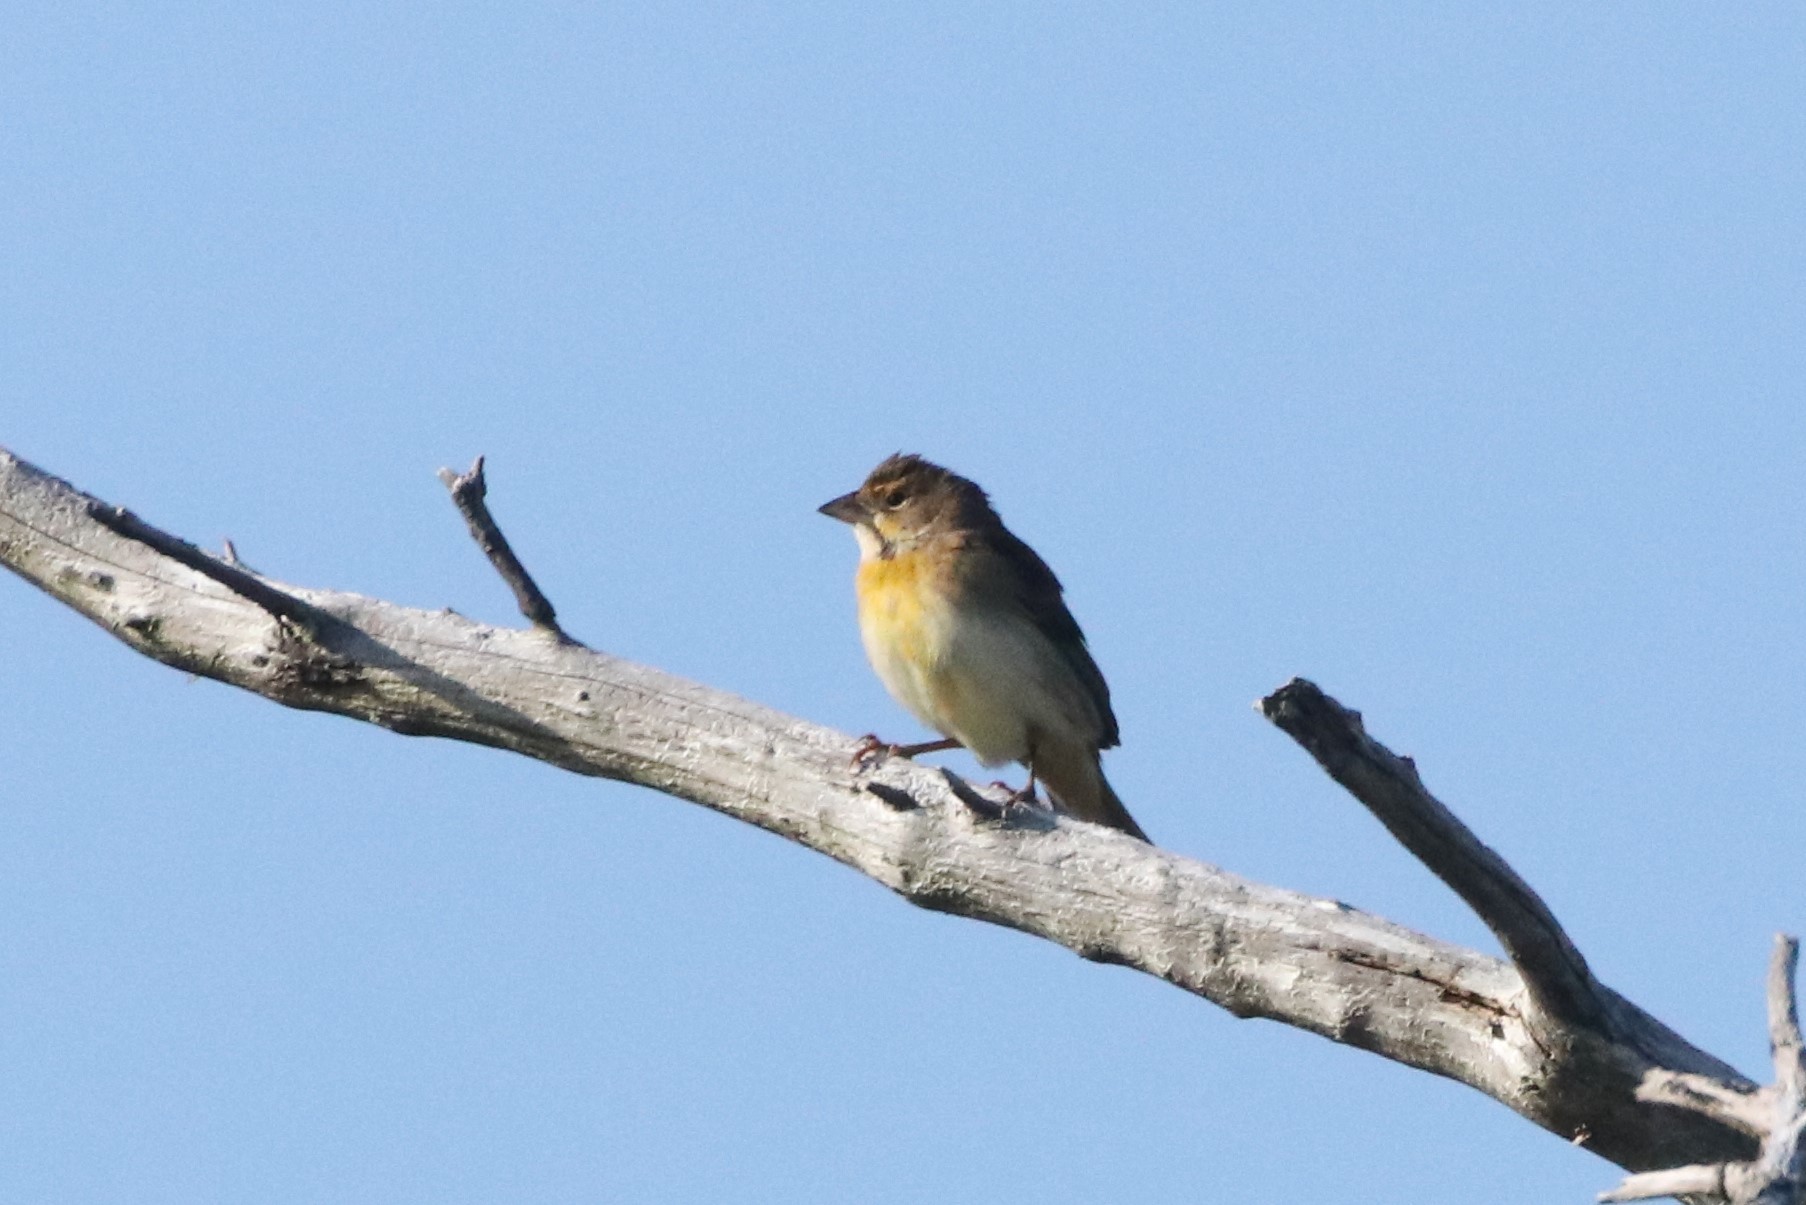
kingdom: Animalia
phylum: Chordata
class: Aves
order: Passeriformes
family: Cardinalidae
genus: Spiza
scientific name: Spiza americana
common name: Dickcissel
